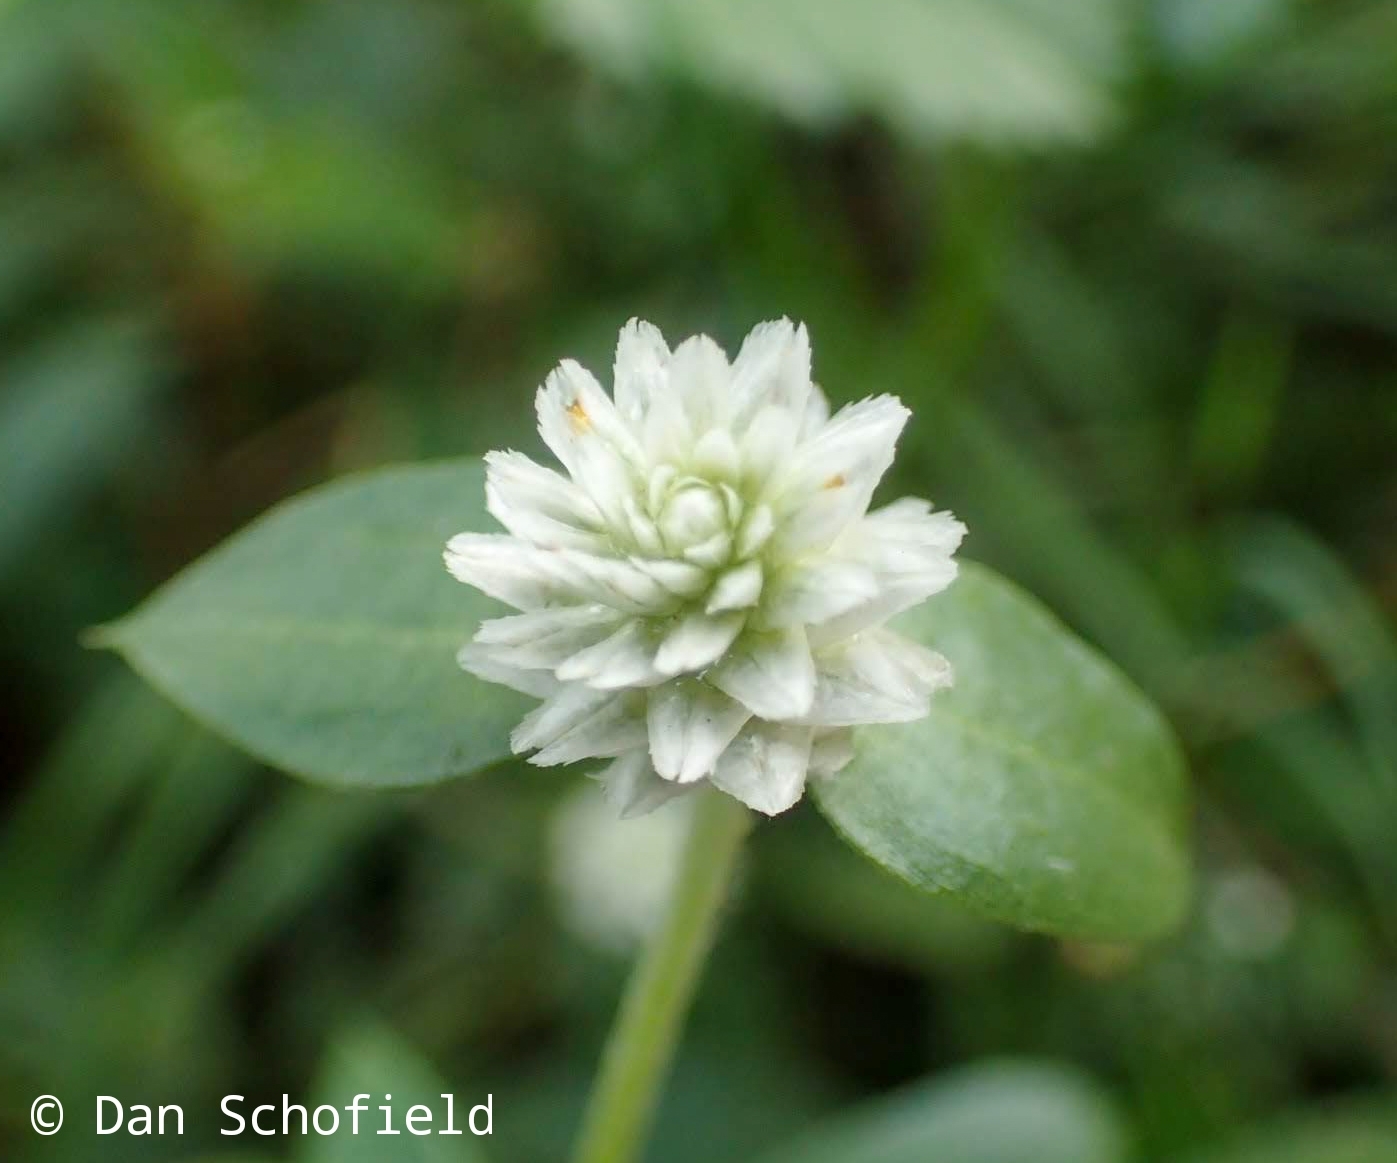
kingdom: Plantae
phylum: Tracheophyta
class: Magnoliopsida
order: Caryophyllales
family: Amaranthaceae
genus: Gomphrena
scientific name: Gomphrena celosioides
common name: Gomphrena-weed
